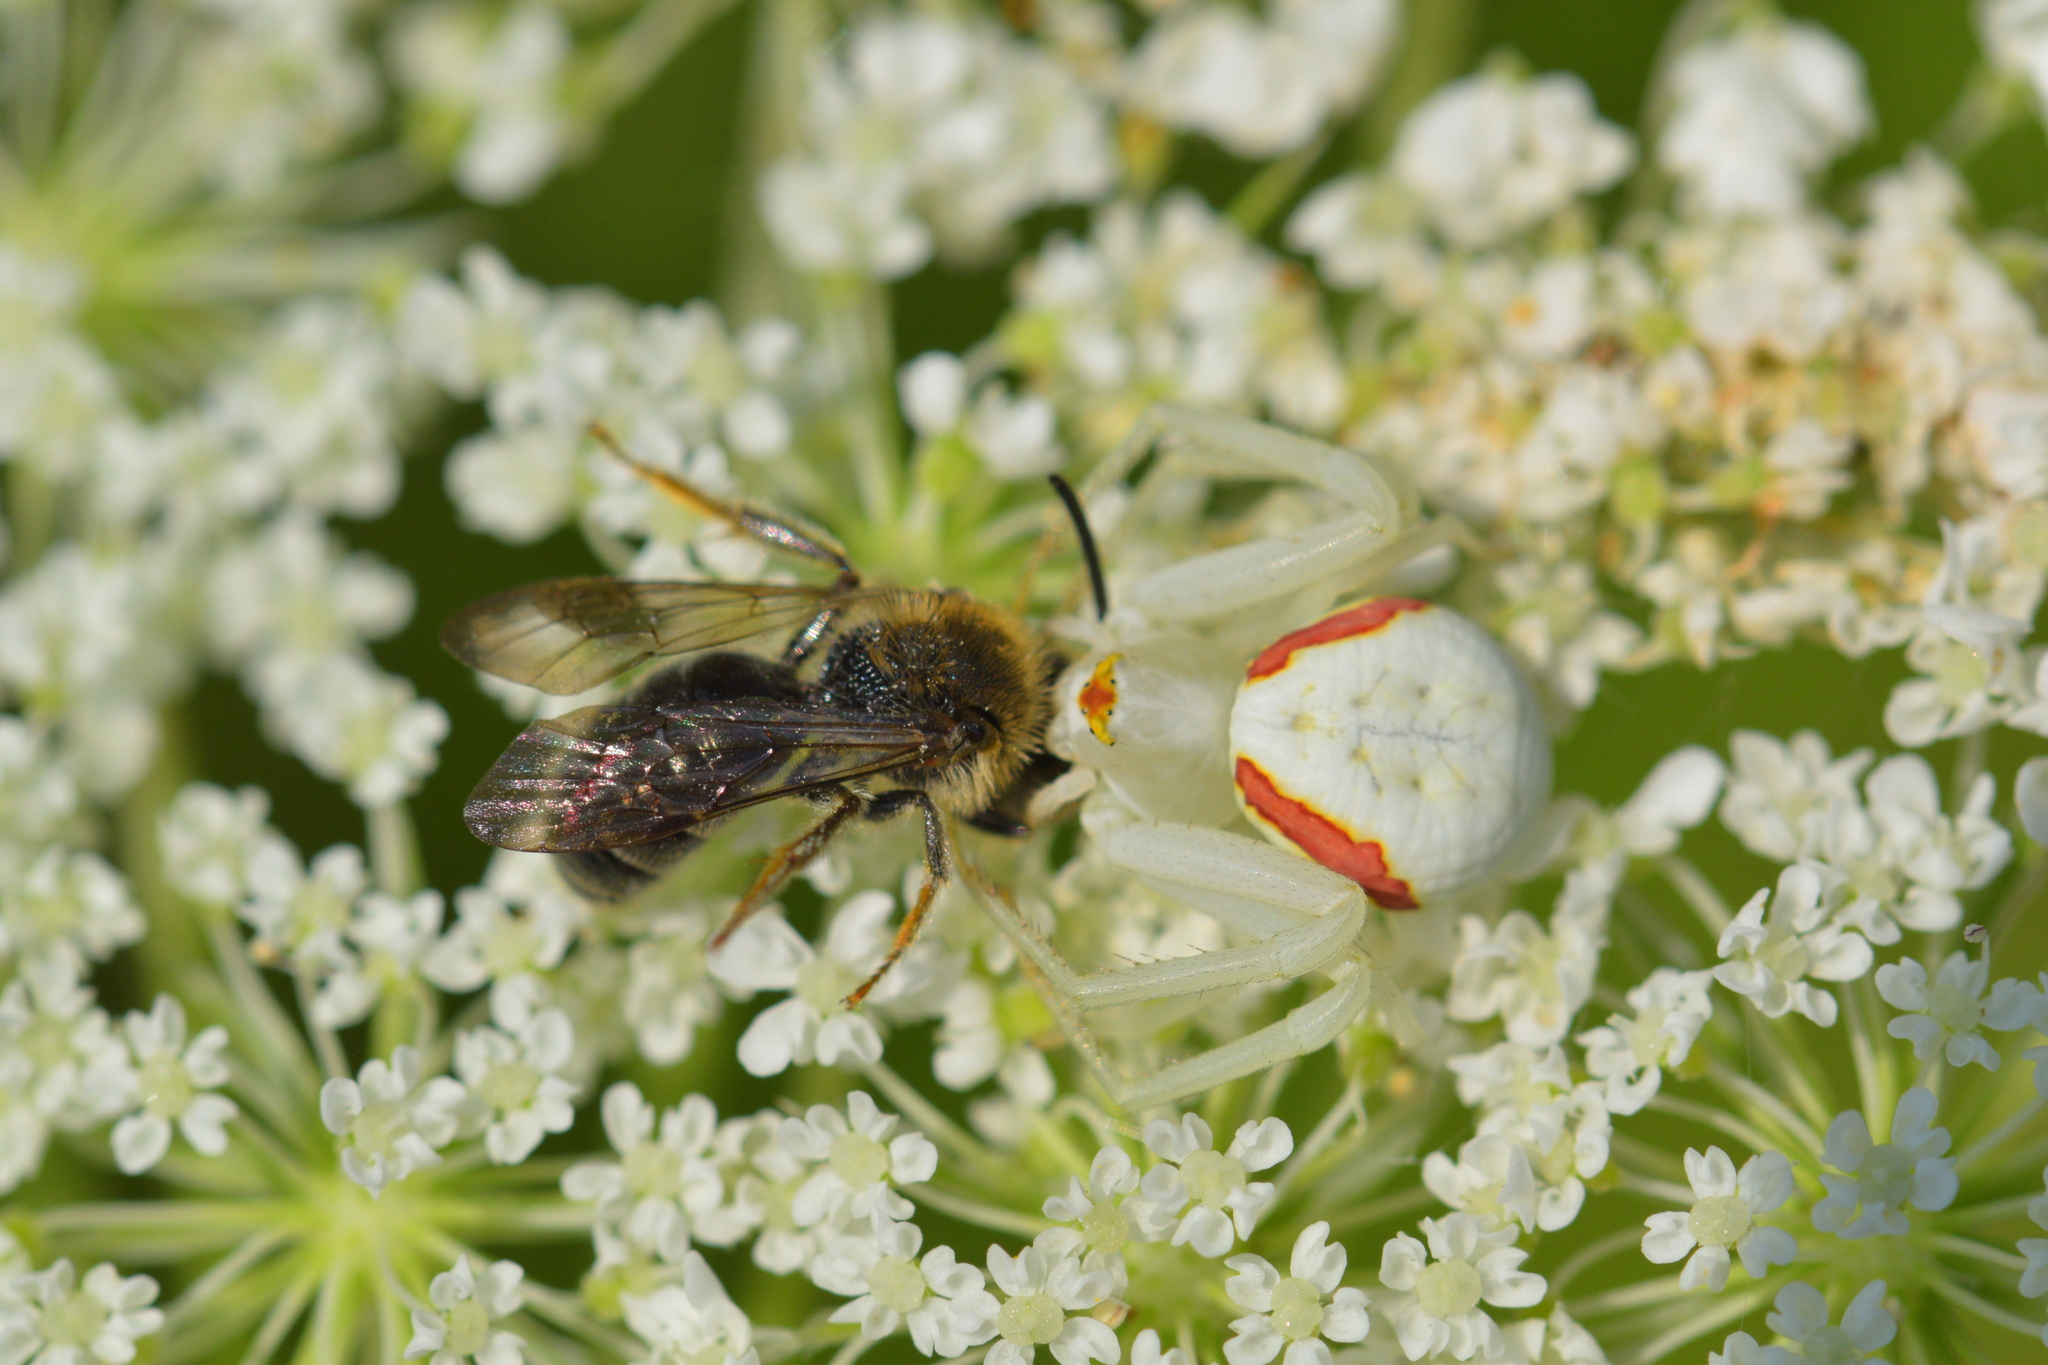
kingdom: Animalia
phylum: Arthropoda
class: Arachnida
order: Araneae
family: Thomisidae
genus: Misumena
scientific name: Misumena vatia
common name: Goldenrod crab spider
